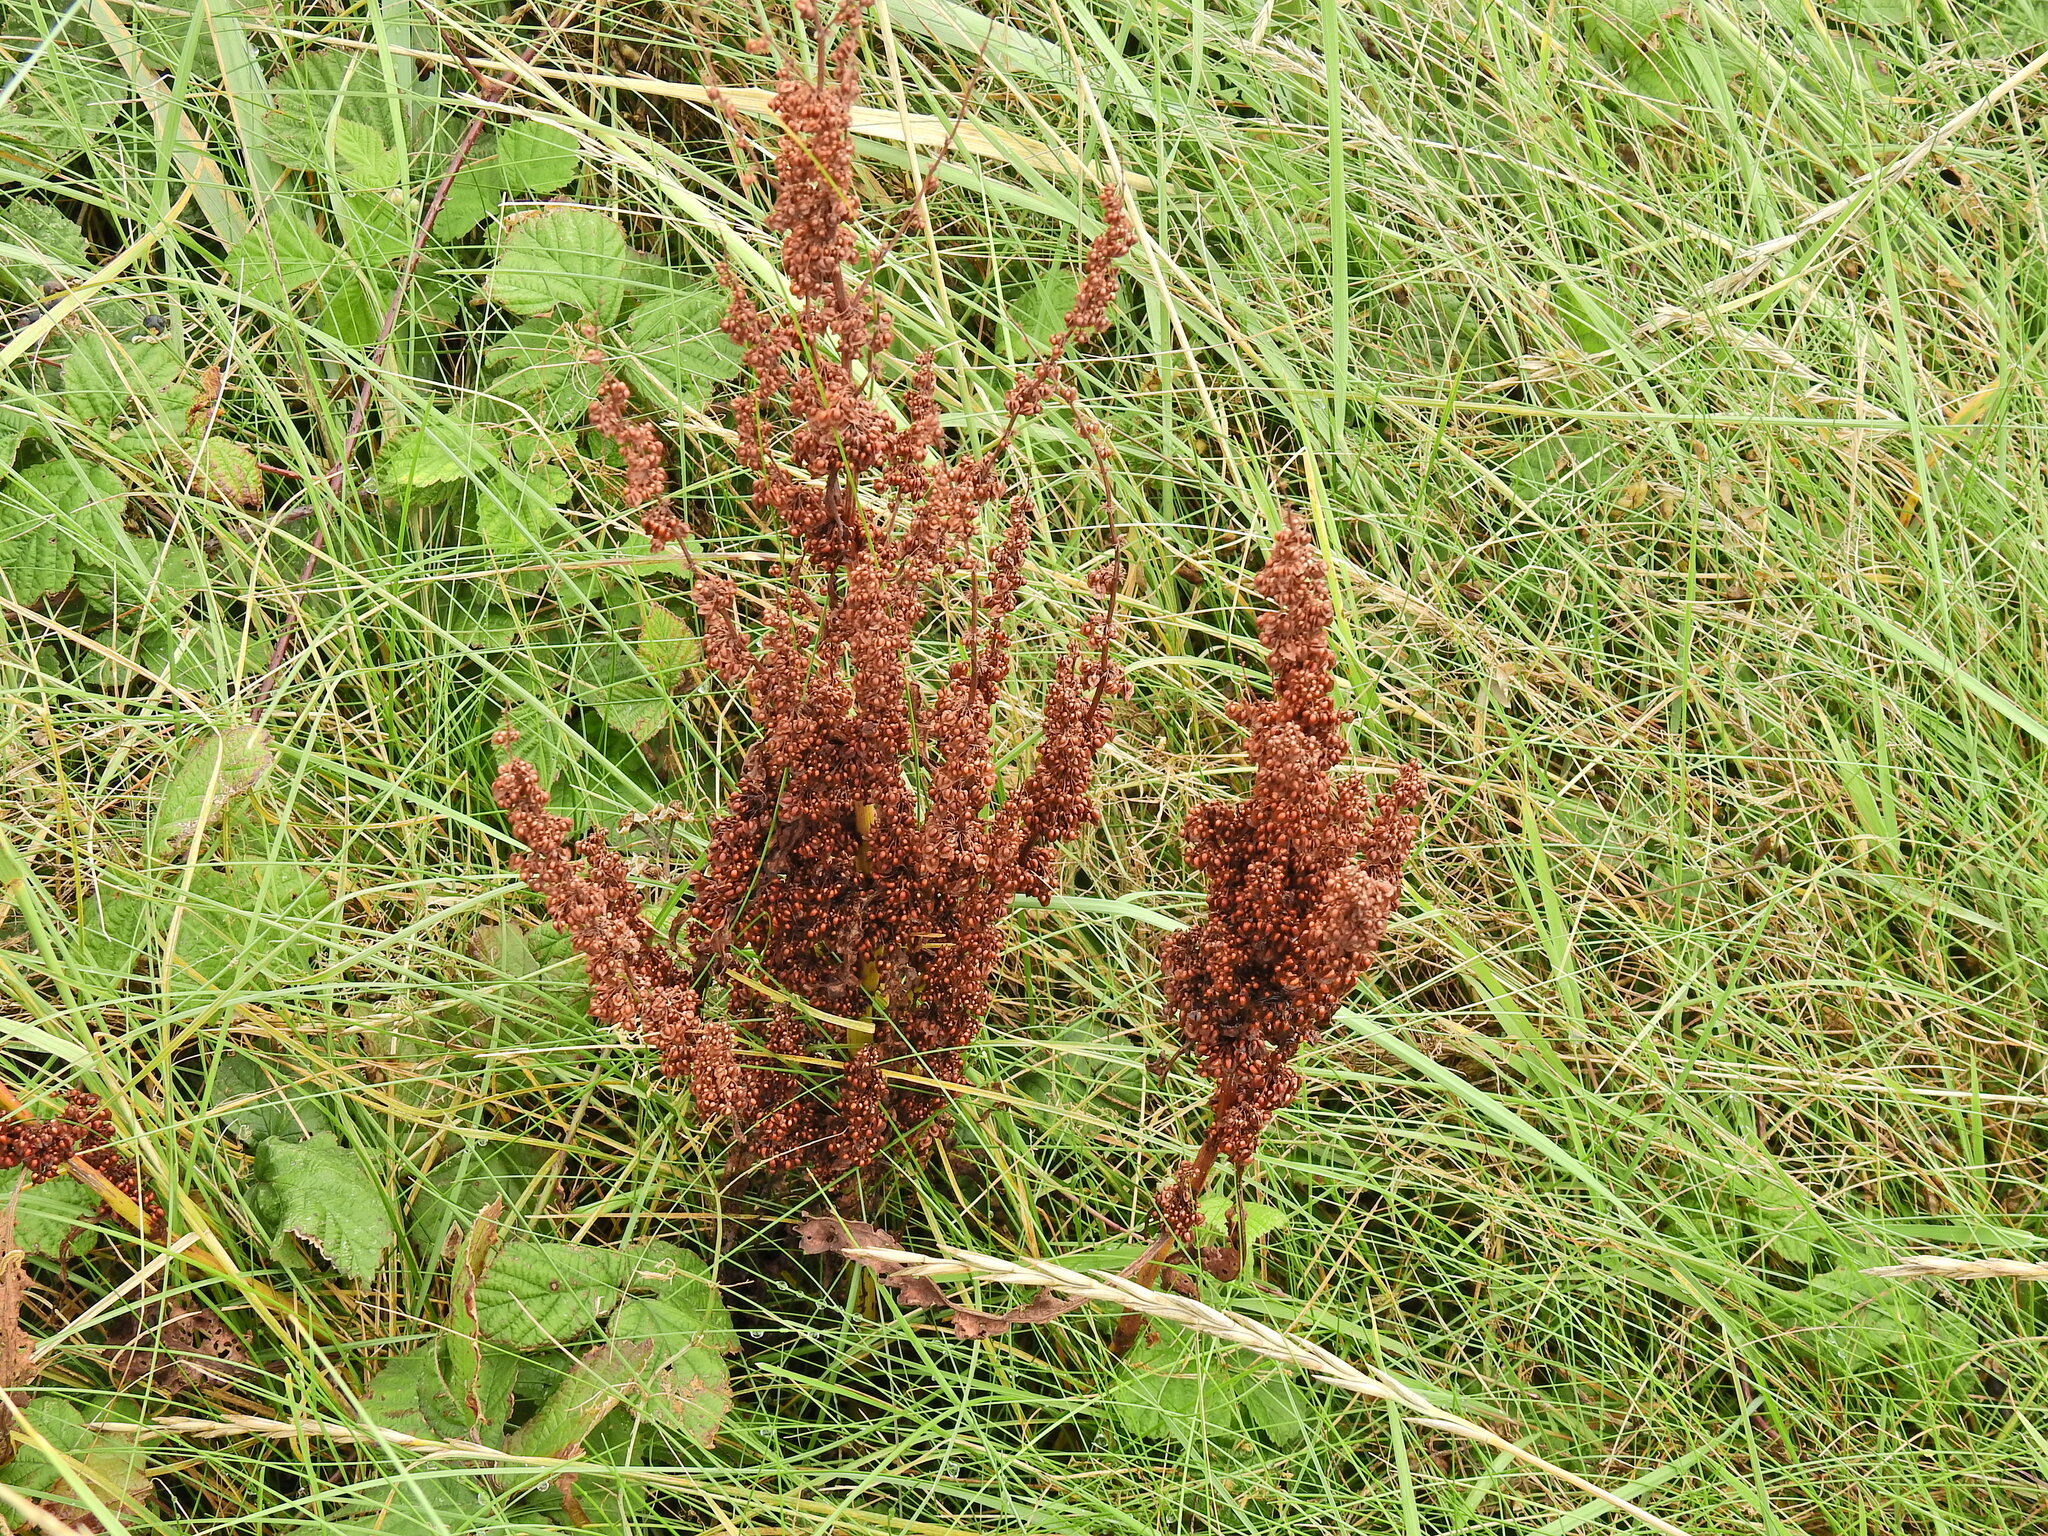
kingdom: Plantae
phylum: Tracheophyta
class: Magnoliopsida
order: Caryophyllales
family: Polygonaceae
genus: Rumex
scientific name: Rumex crispus
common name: Curled dock
